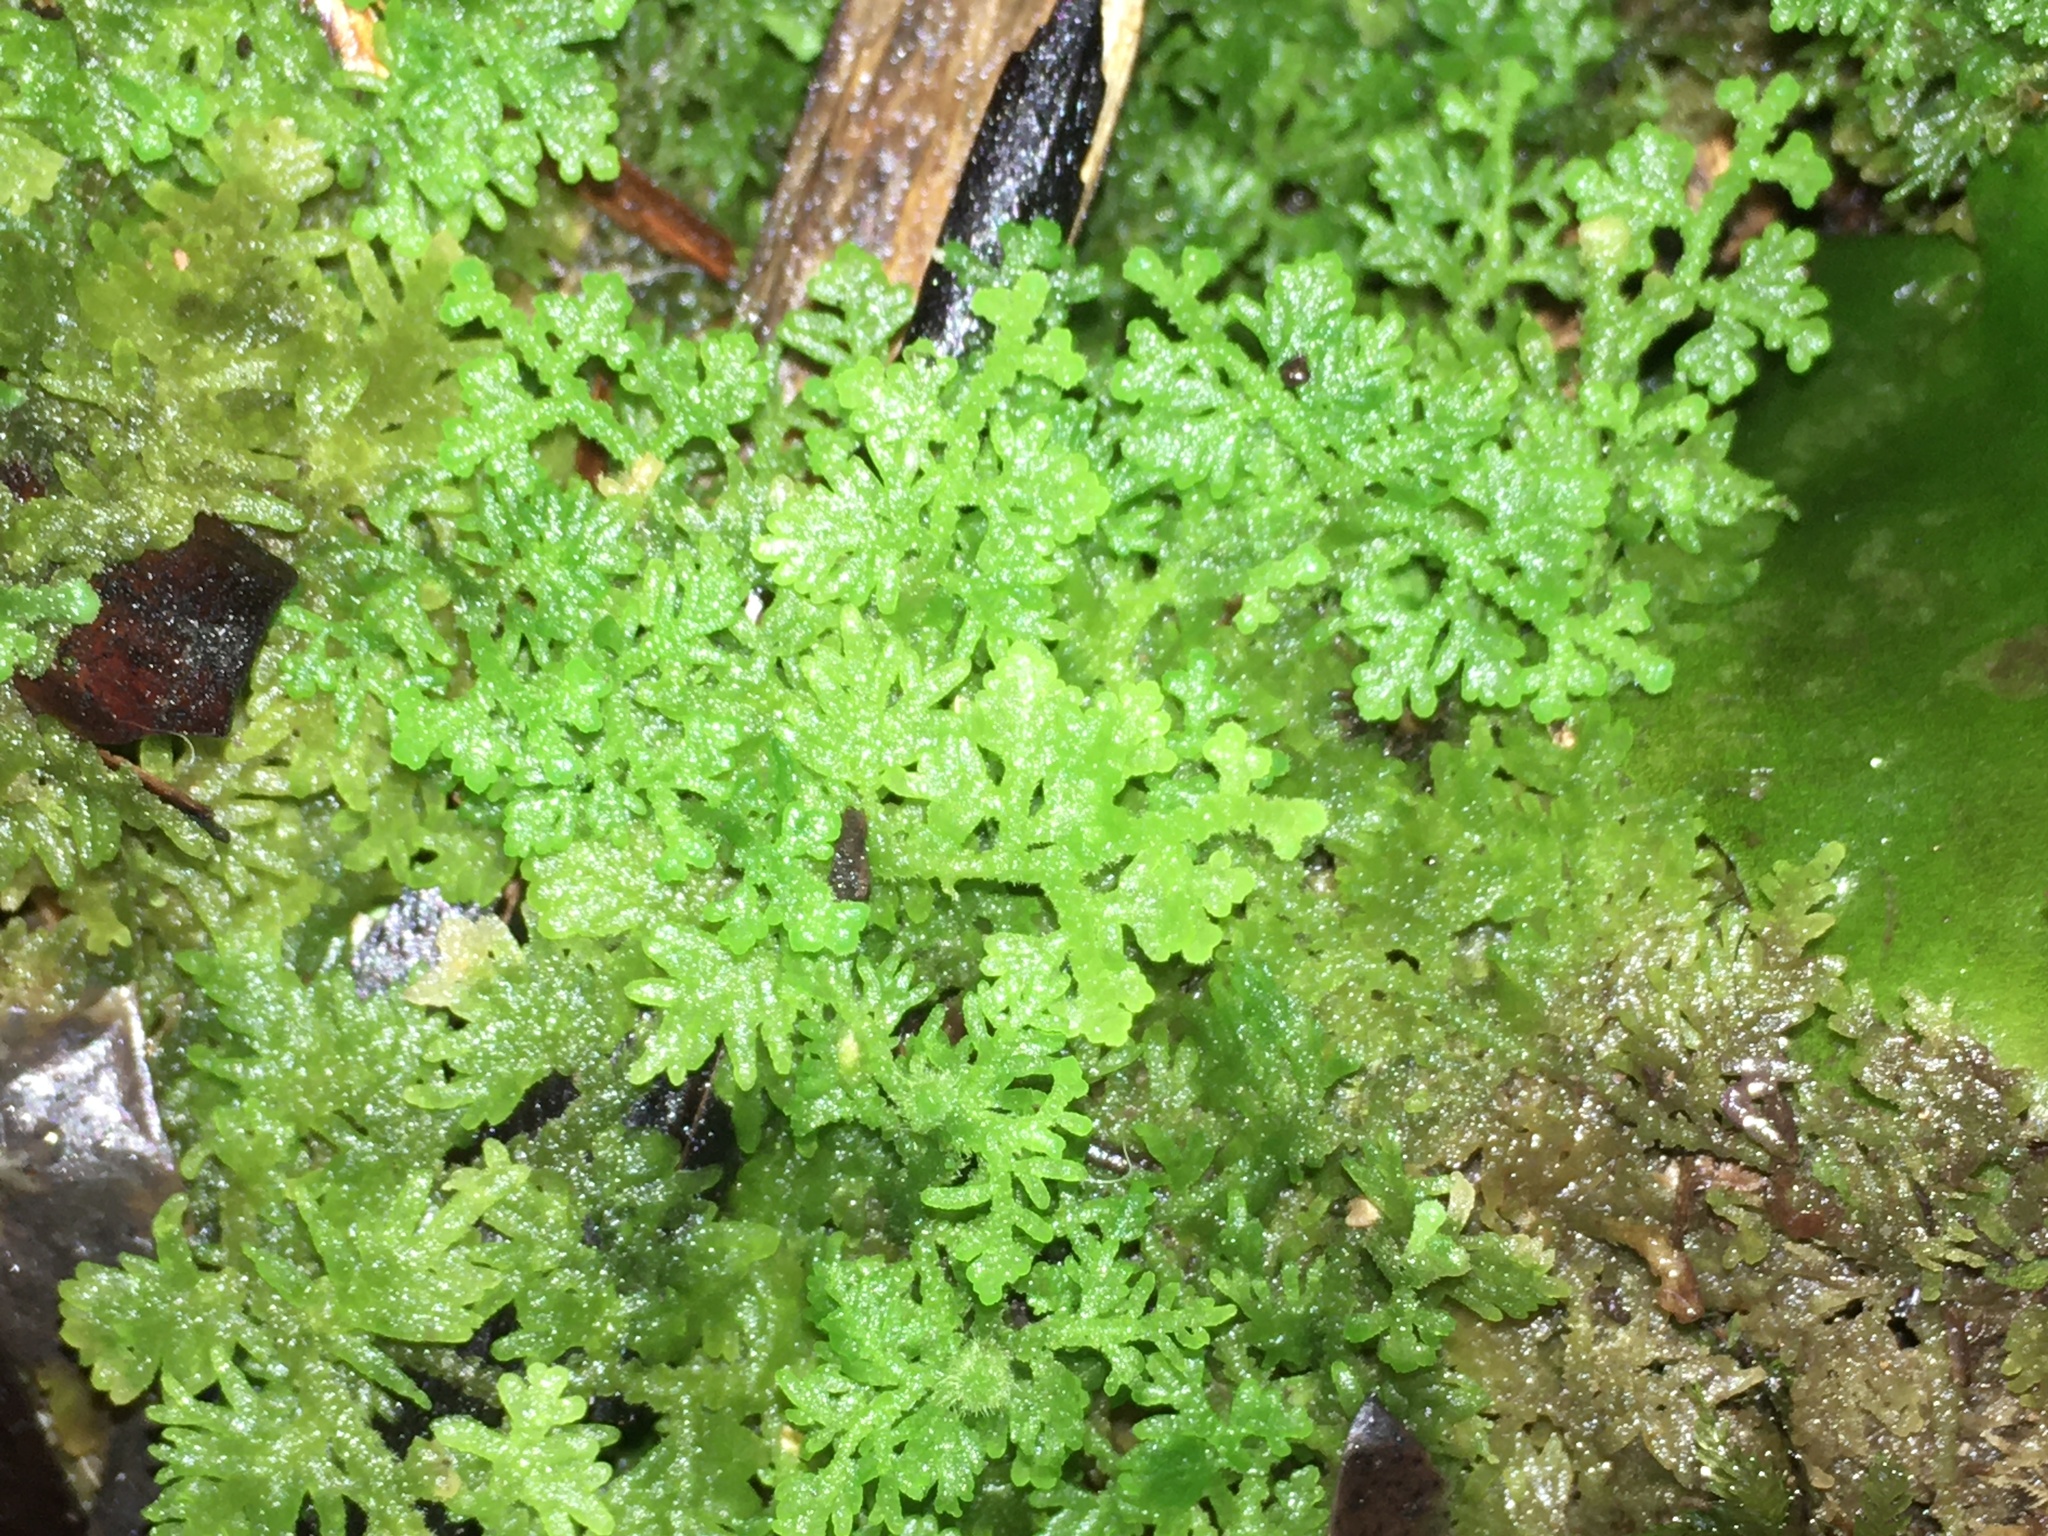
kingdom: Plantae
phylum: Marchantiophyta
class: Jungermanniopsida
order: Jungermanniales
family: Trichocoleaceae
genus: Trichocolea
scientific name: Trichocolea mollissima
